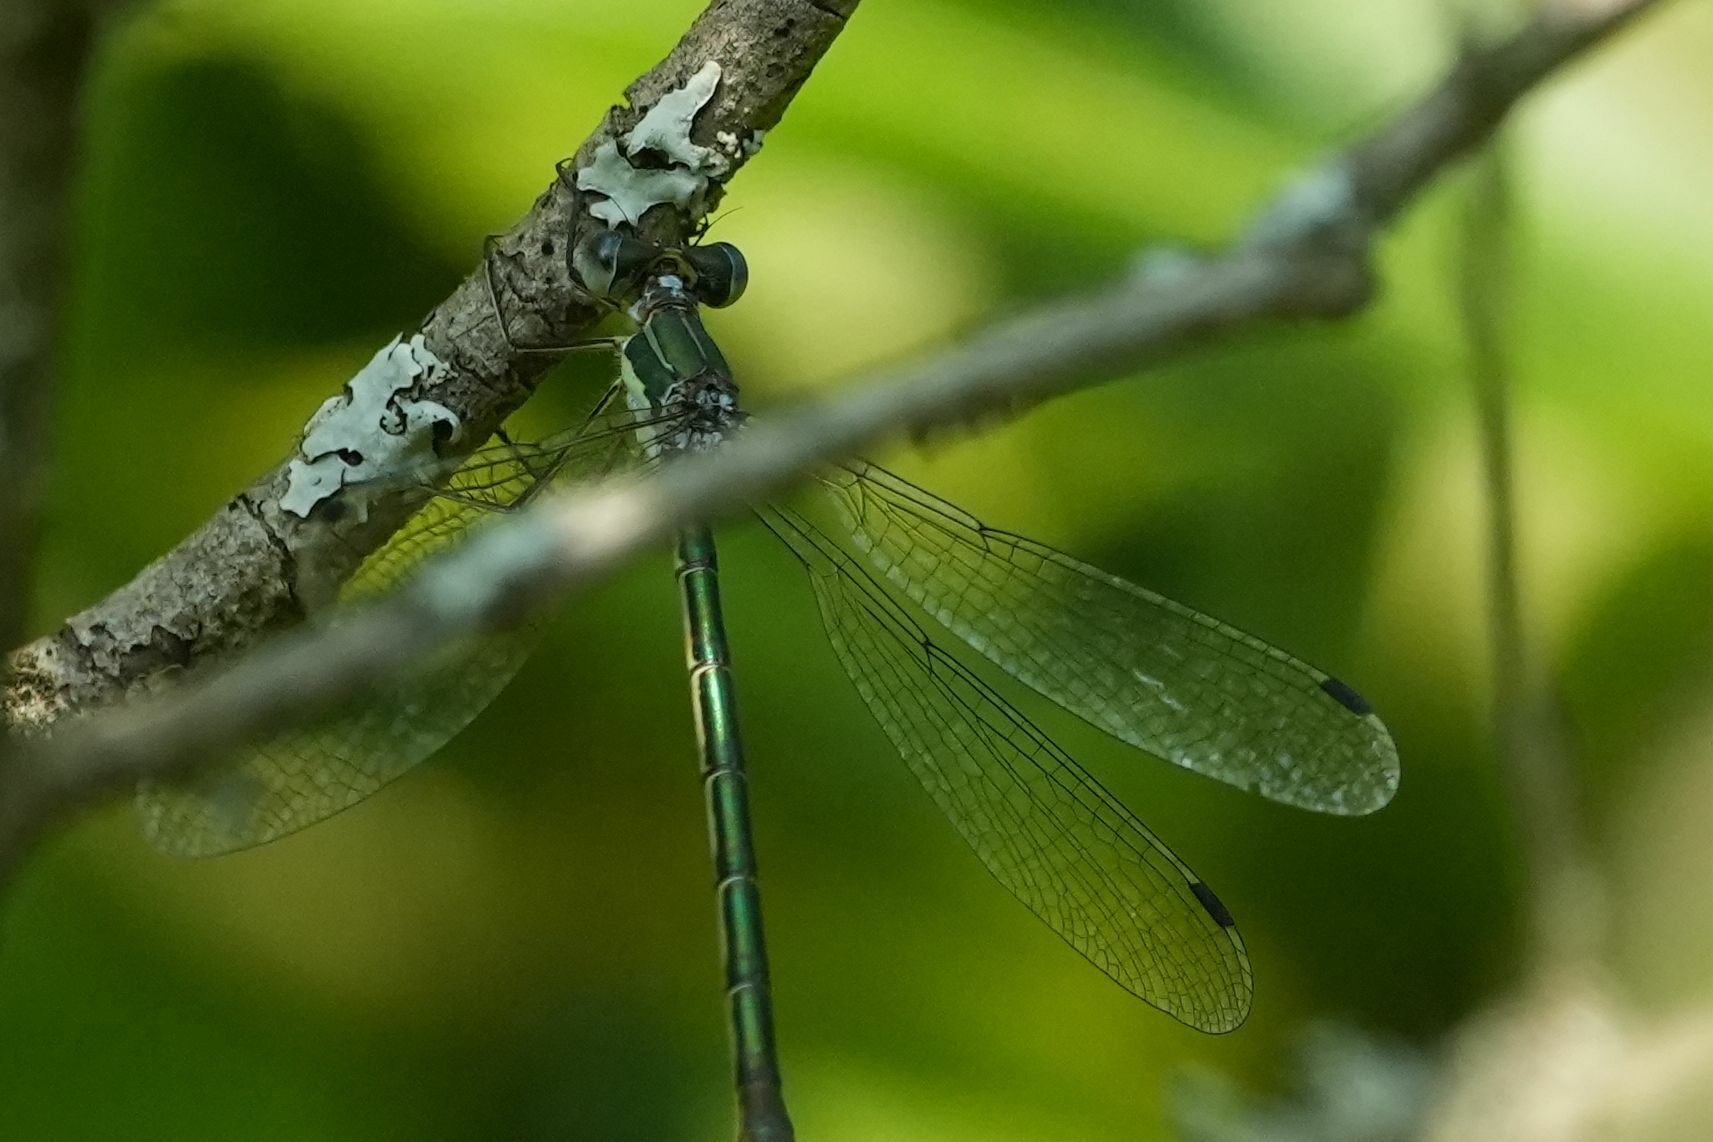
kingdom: Animalia
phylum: Arthropoda
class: Insecta
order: Odonata
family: Lestidae
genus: Lestes
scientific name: Lestes dryas
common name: Scarce emerald damselfly
